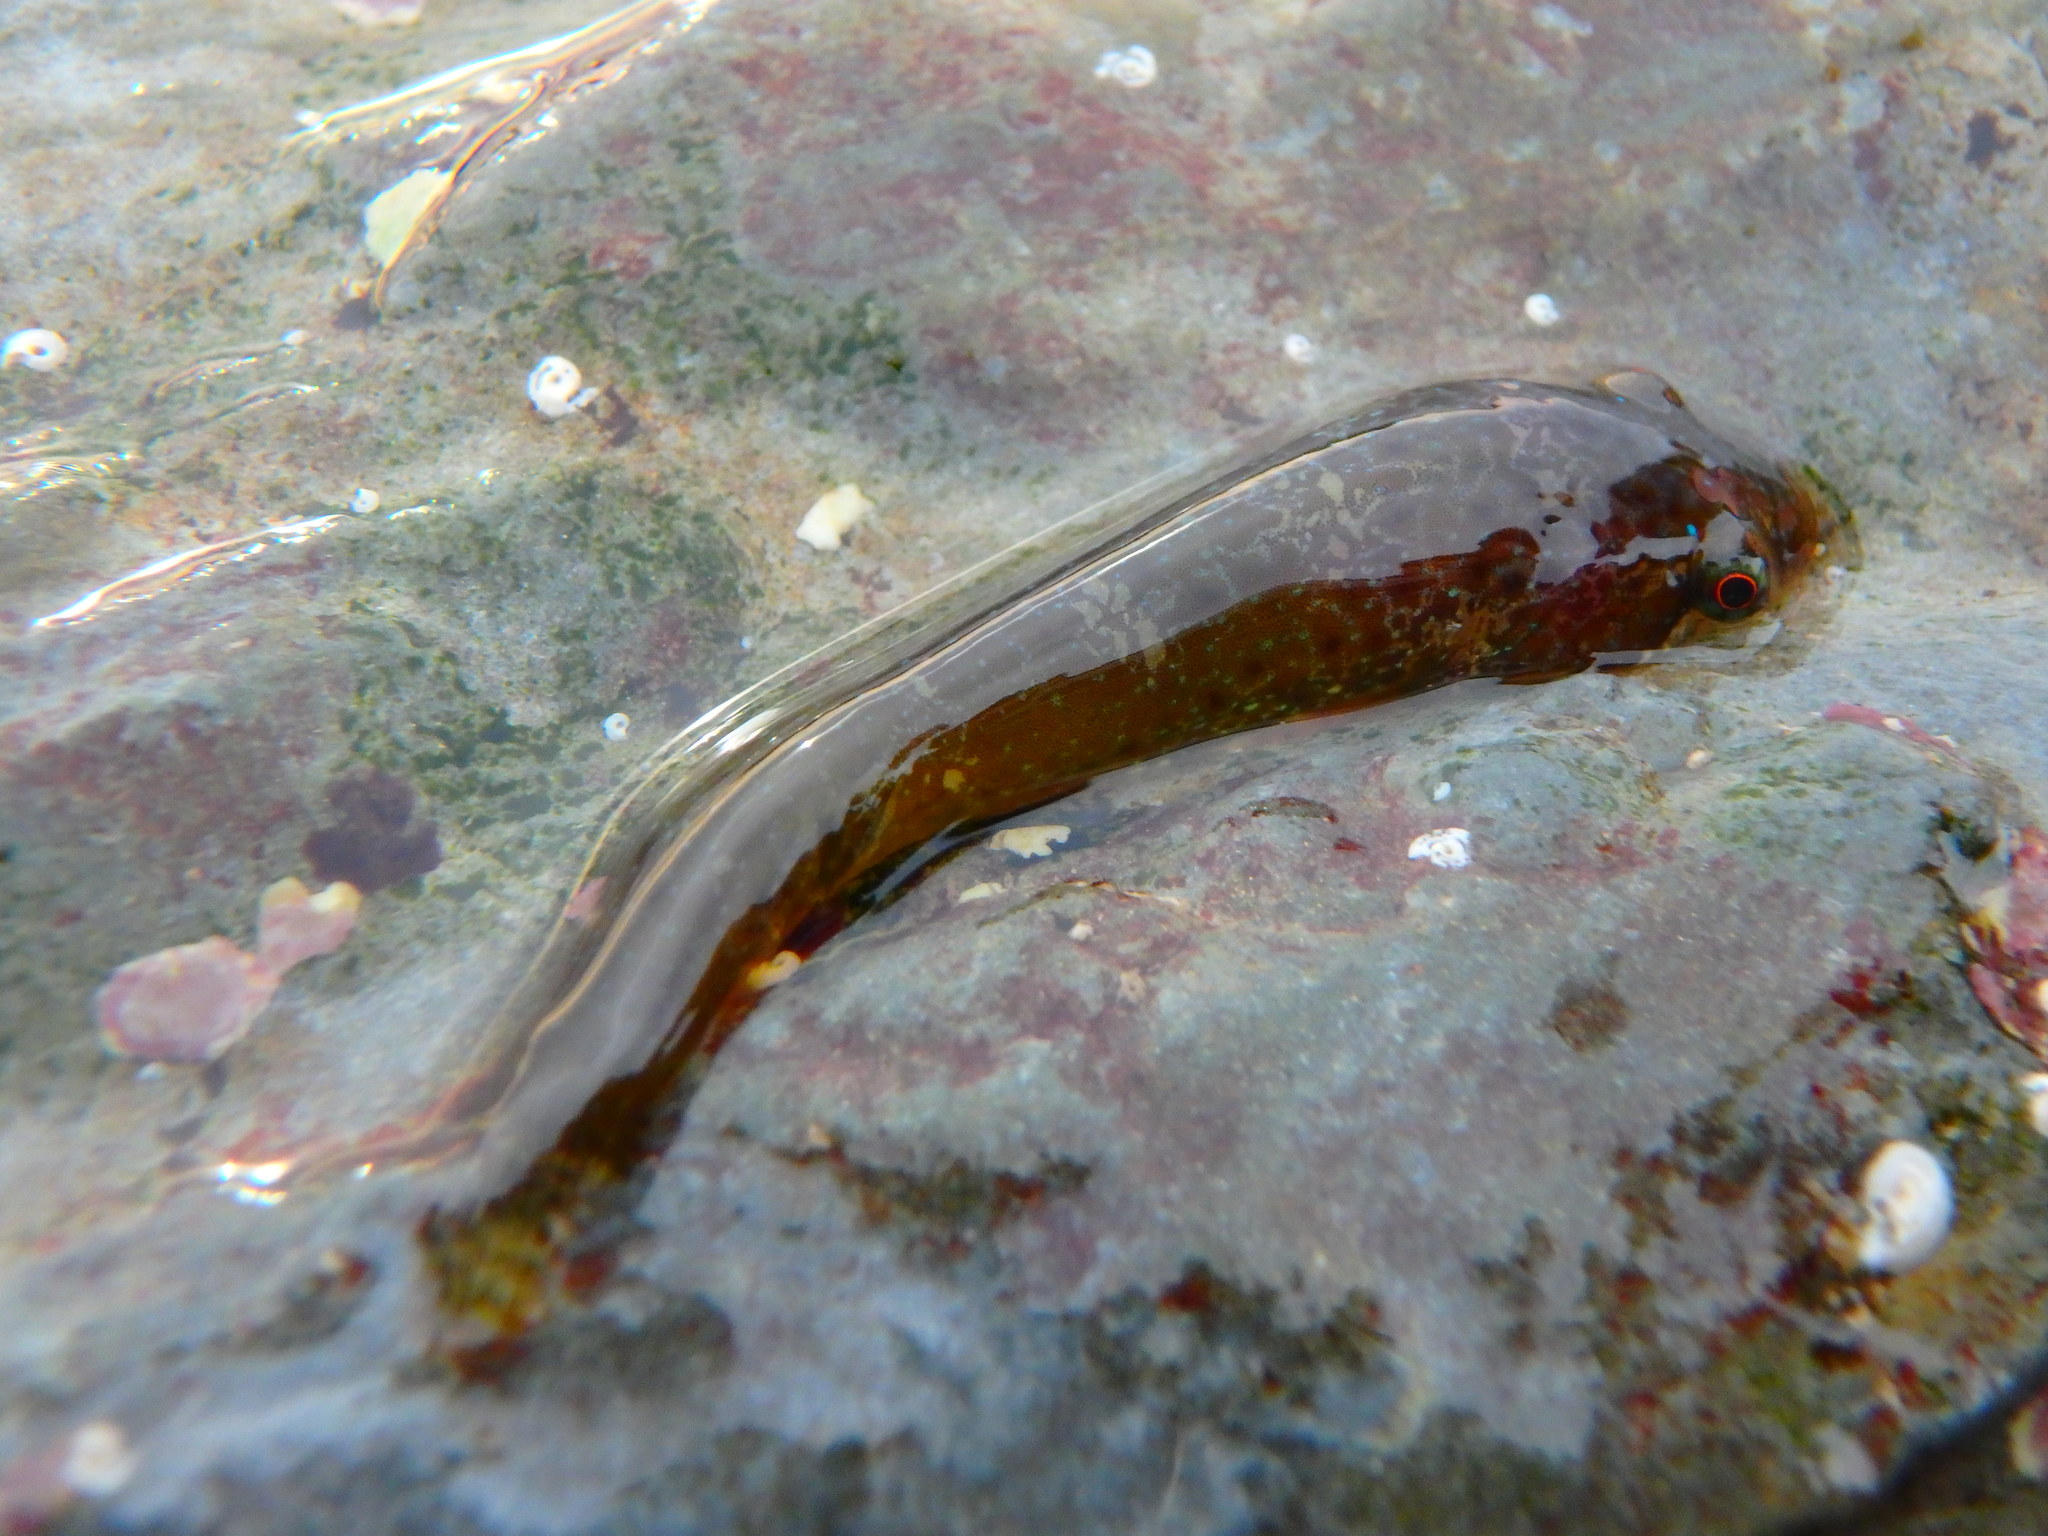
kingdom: Animalia
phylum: Chordata
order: Gobiesociformes
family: Gobiesocidae
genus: Apletodon
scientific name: Apletodon dentatus
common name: Small-headed clingfish
